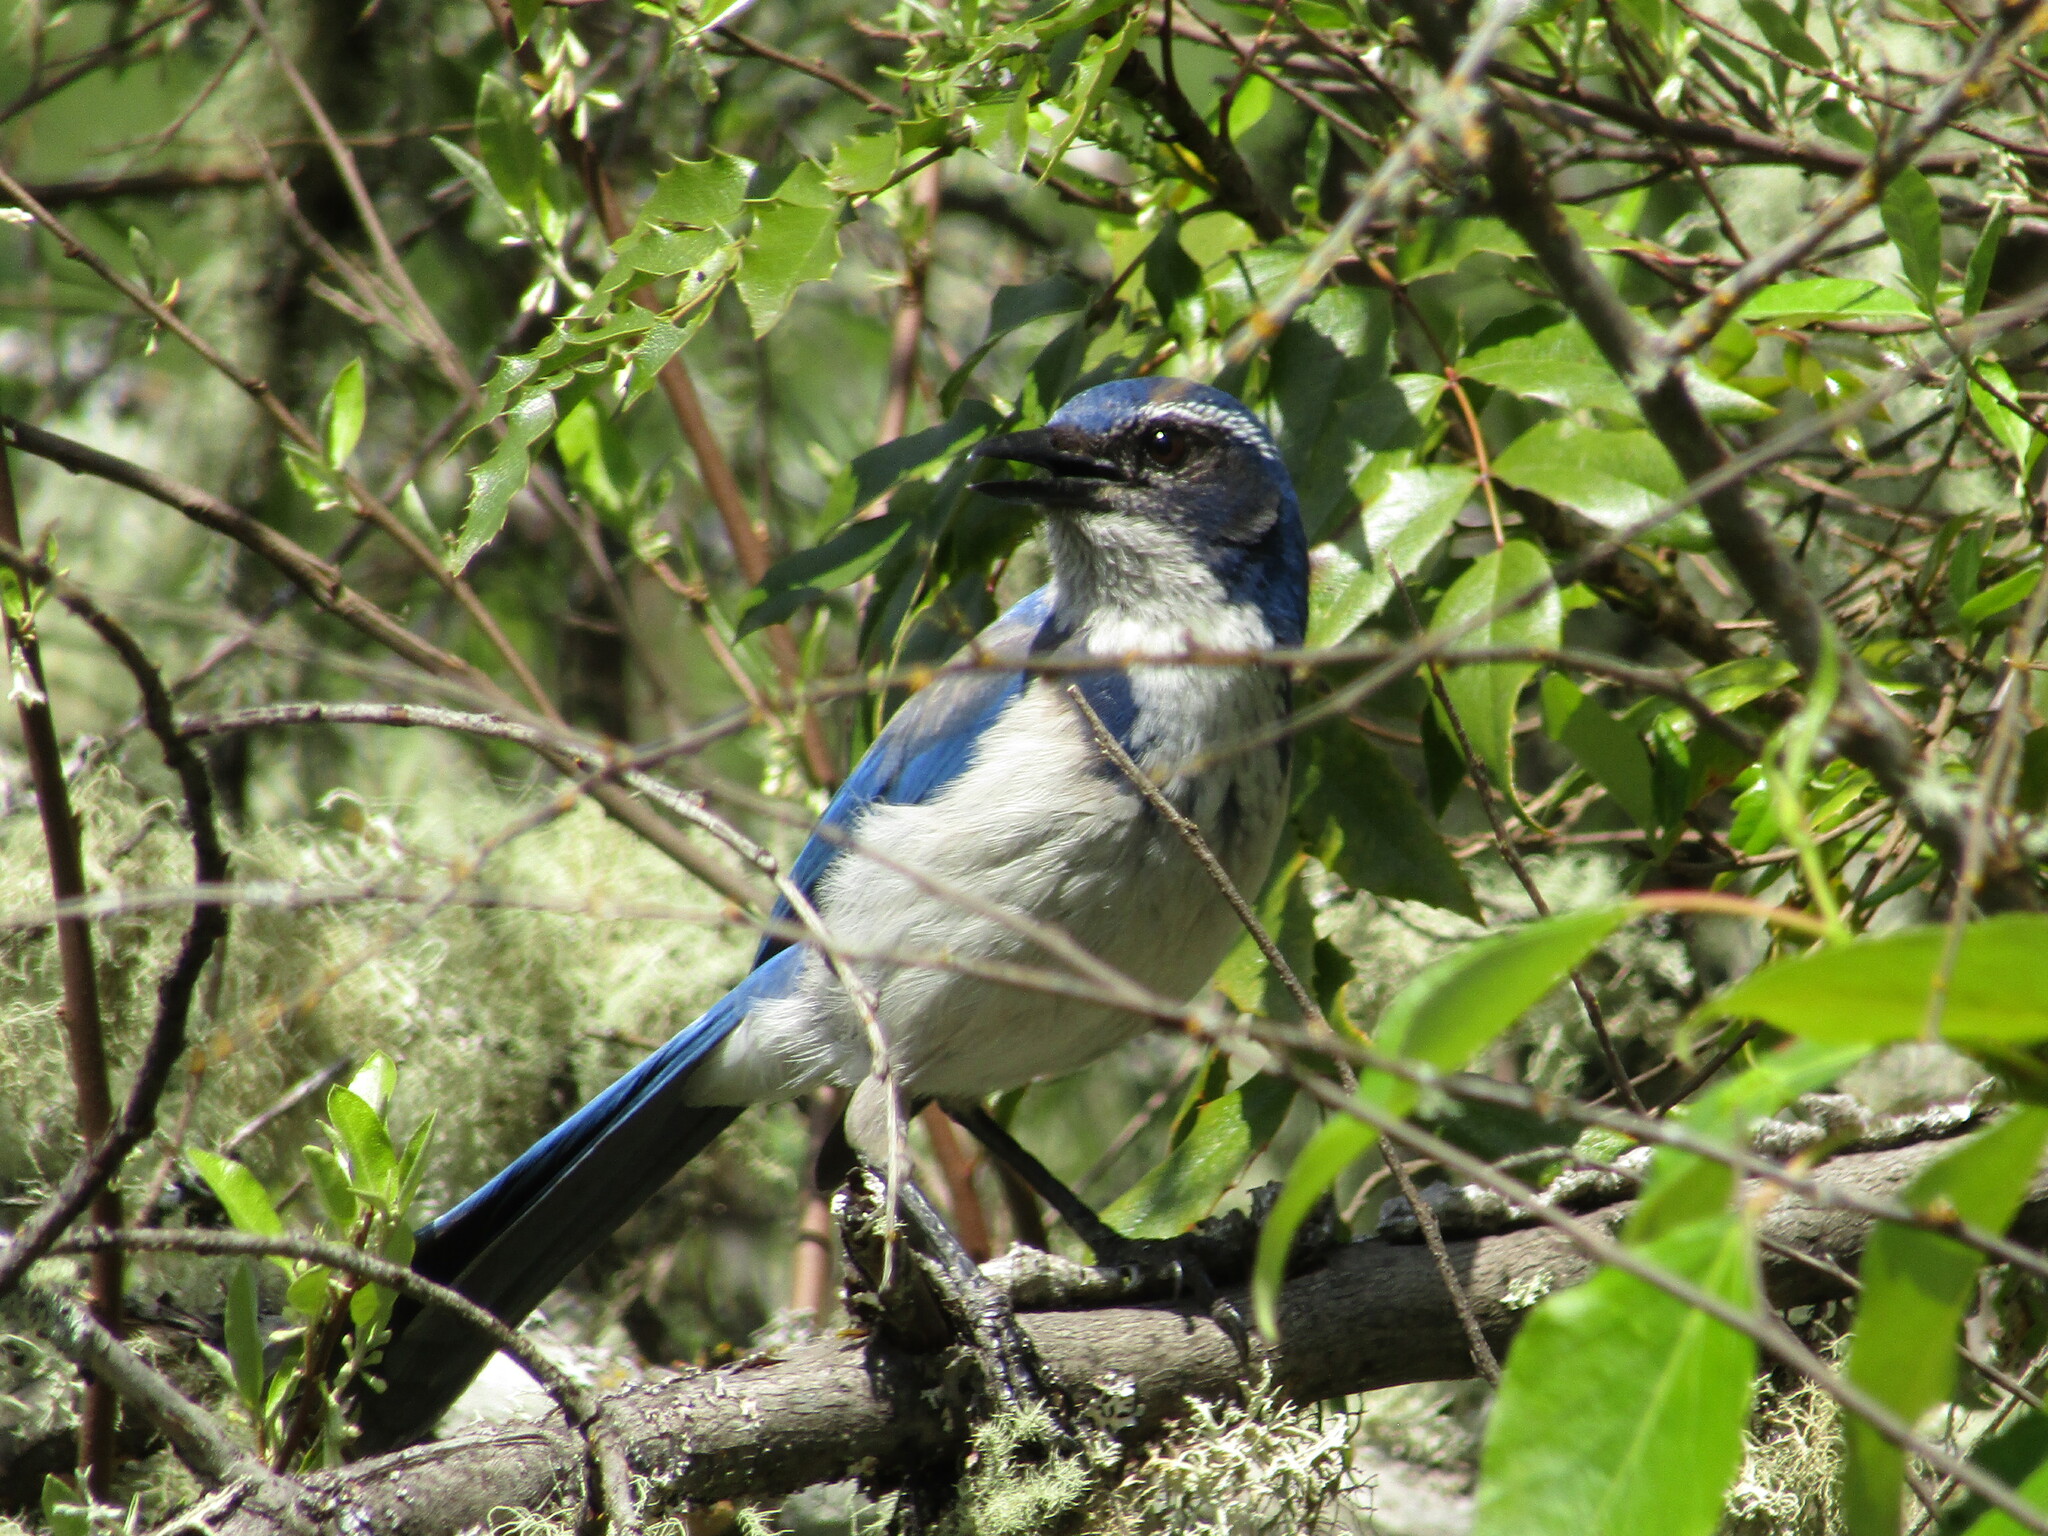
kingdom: Animalia
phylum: Chordata
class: Aves
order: Passeriformes
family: Corvidae
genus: Aphelocoma
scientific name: Aphelocoma californica
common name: California scrub-jay
